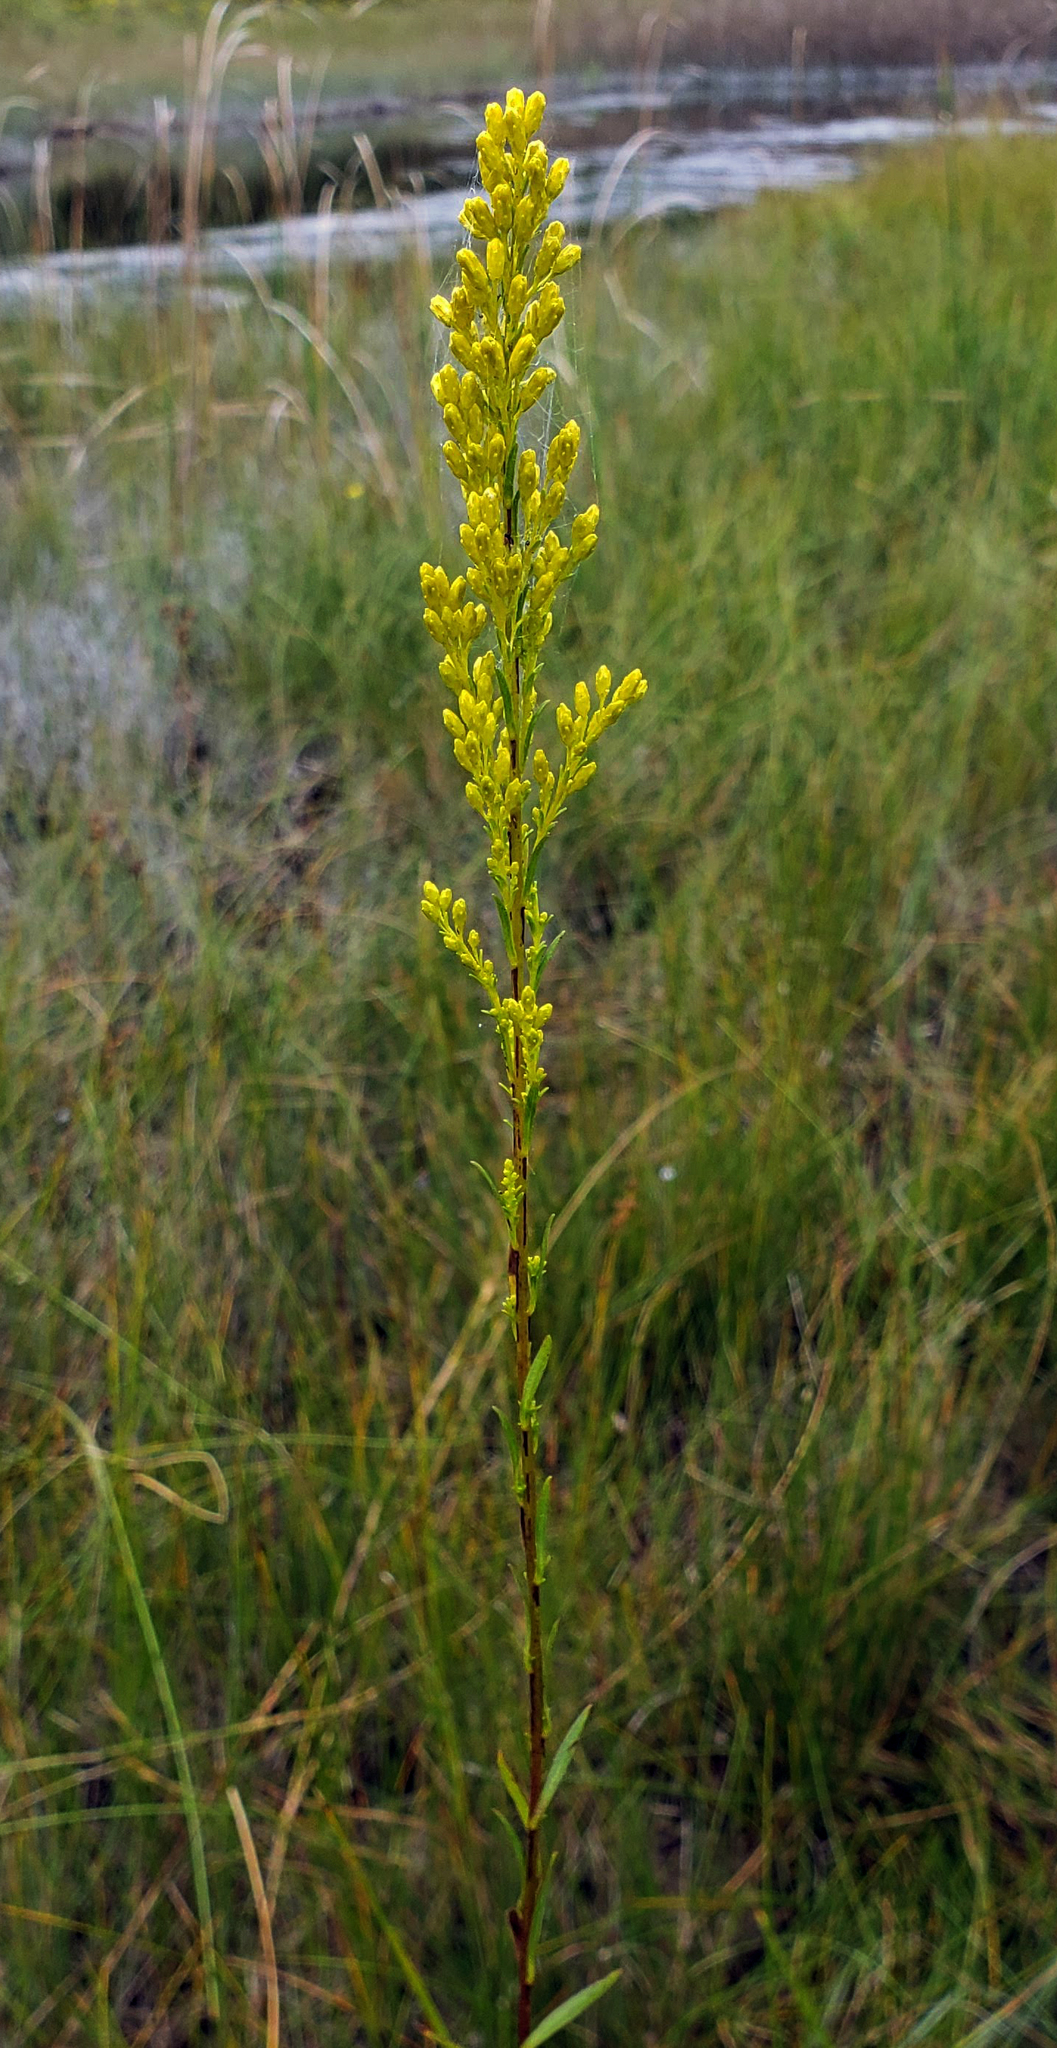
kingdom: Plantae
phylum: Tracheophyta
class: Magnoliopsida
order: Asterales
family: Asteraceae
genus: Solidago
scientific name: Solidago uliginosa
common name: Bog goldenrod
